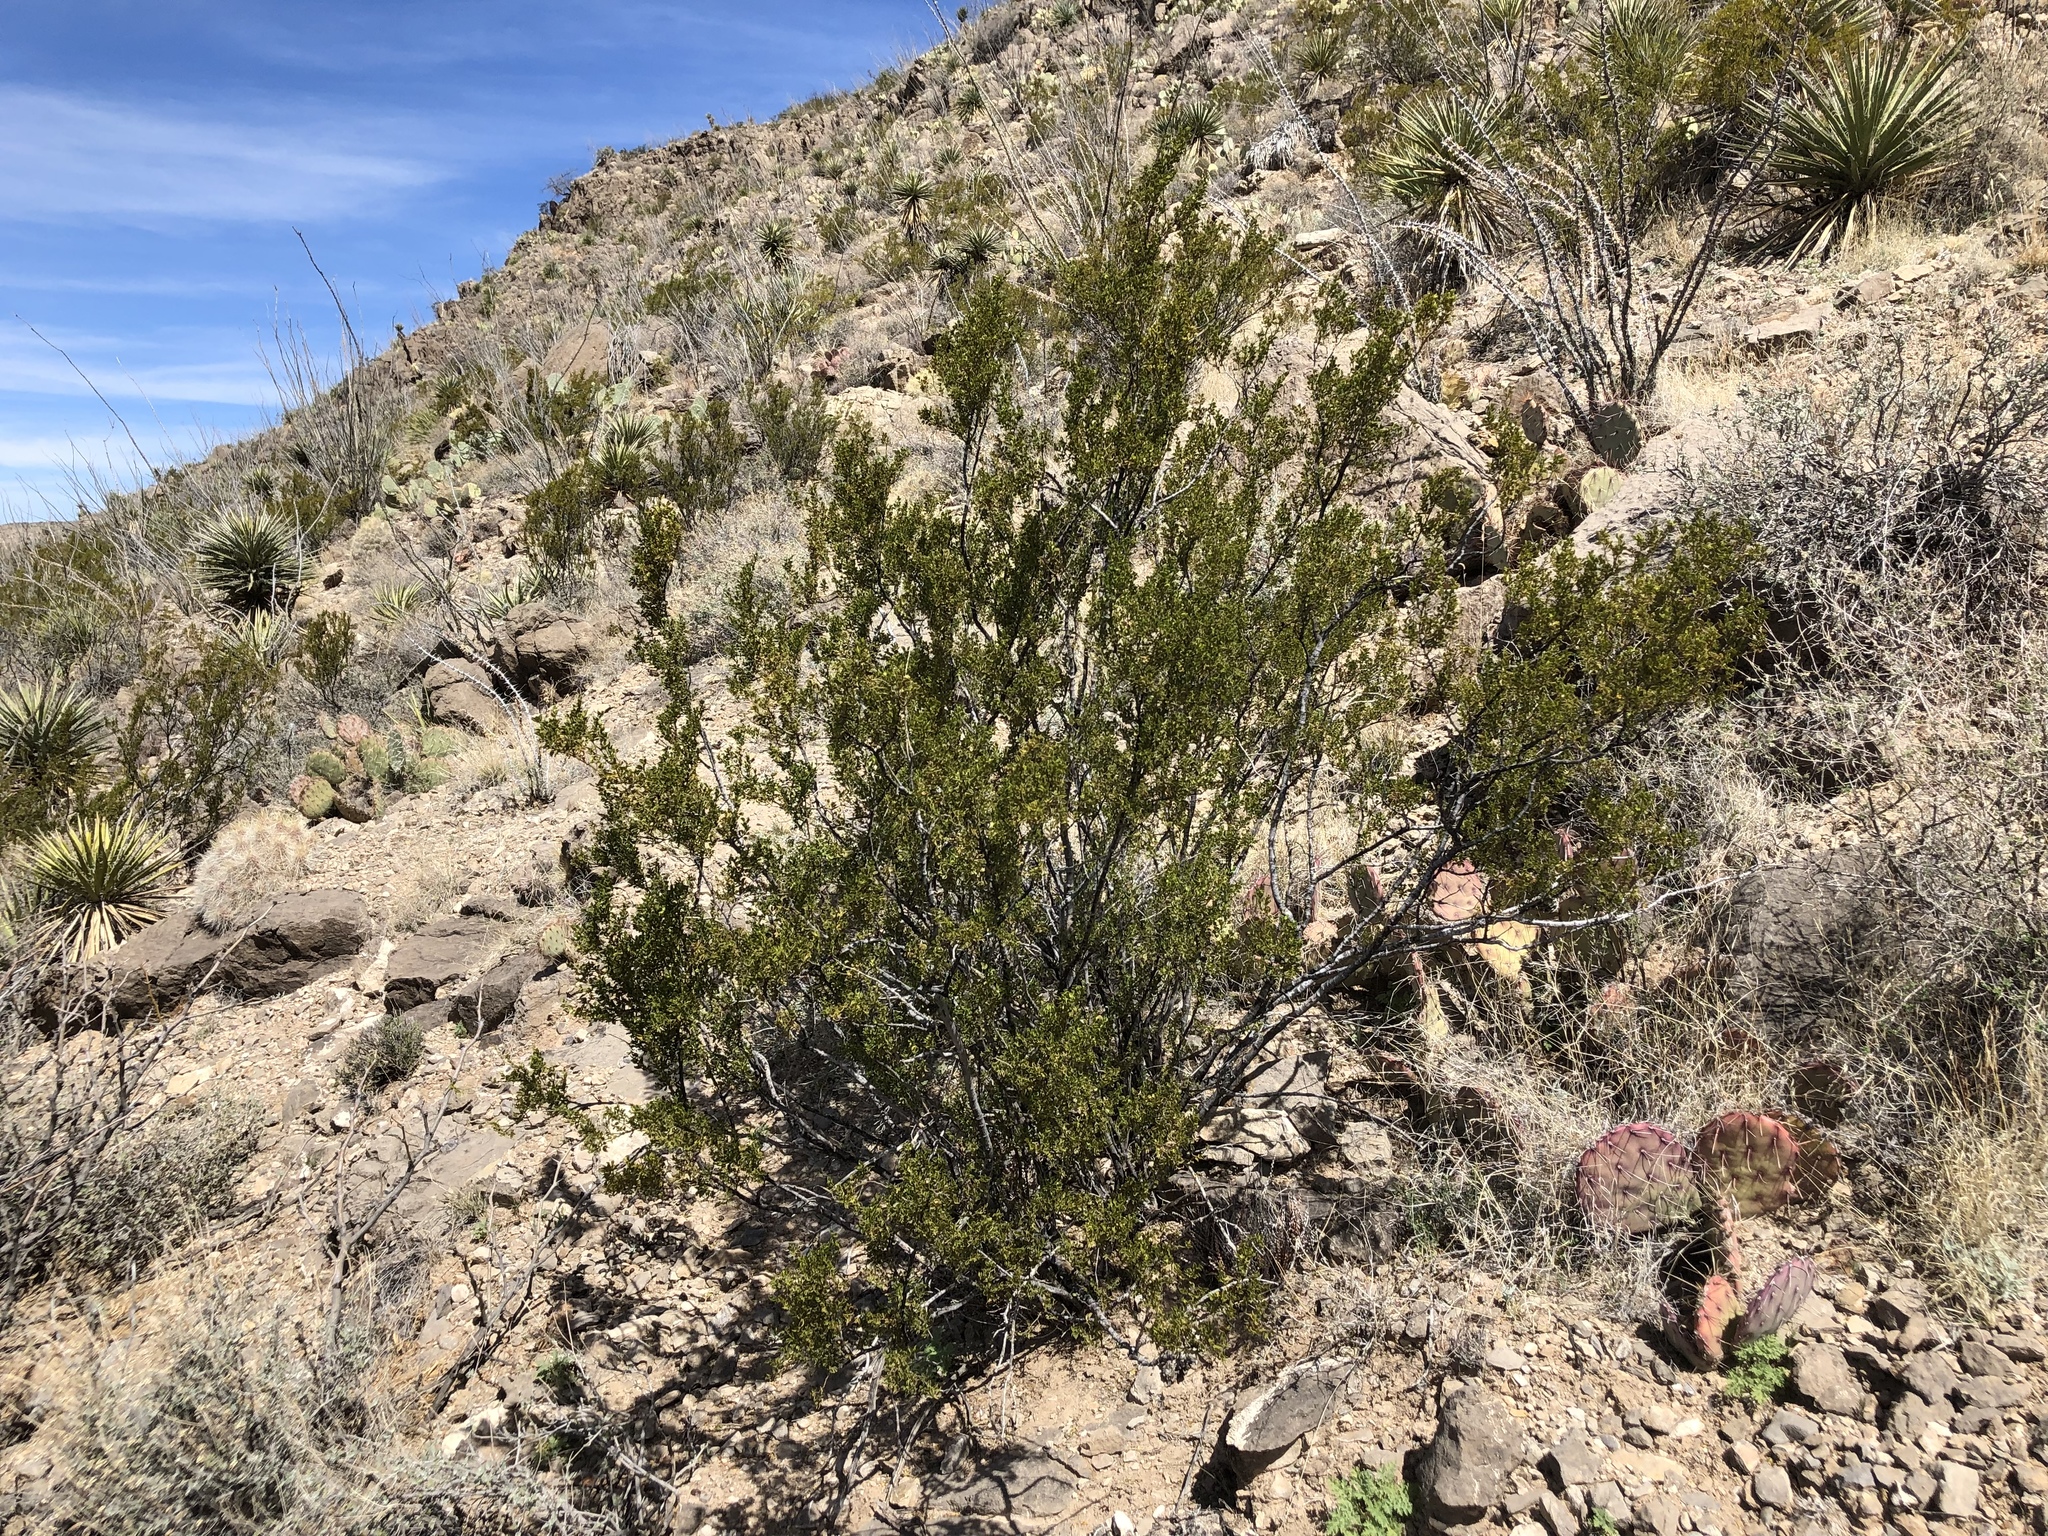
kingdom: Plantae
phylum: Tracheophyta
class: Magnoliopsida
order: Zygophyllales
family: Zygophyllaceae
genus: Larrea
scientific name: Larrea tridentata
